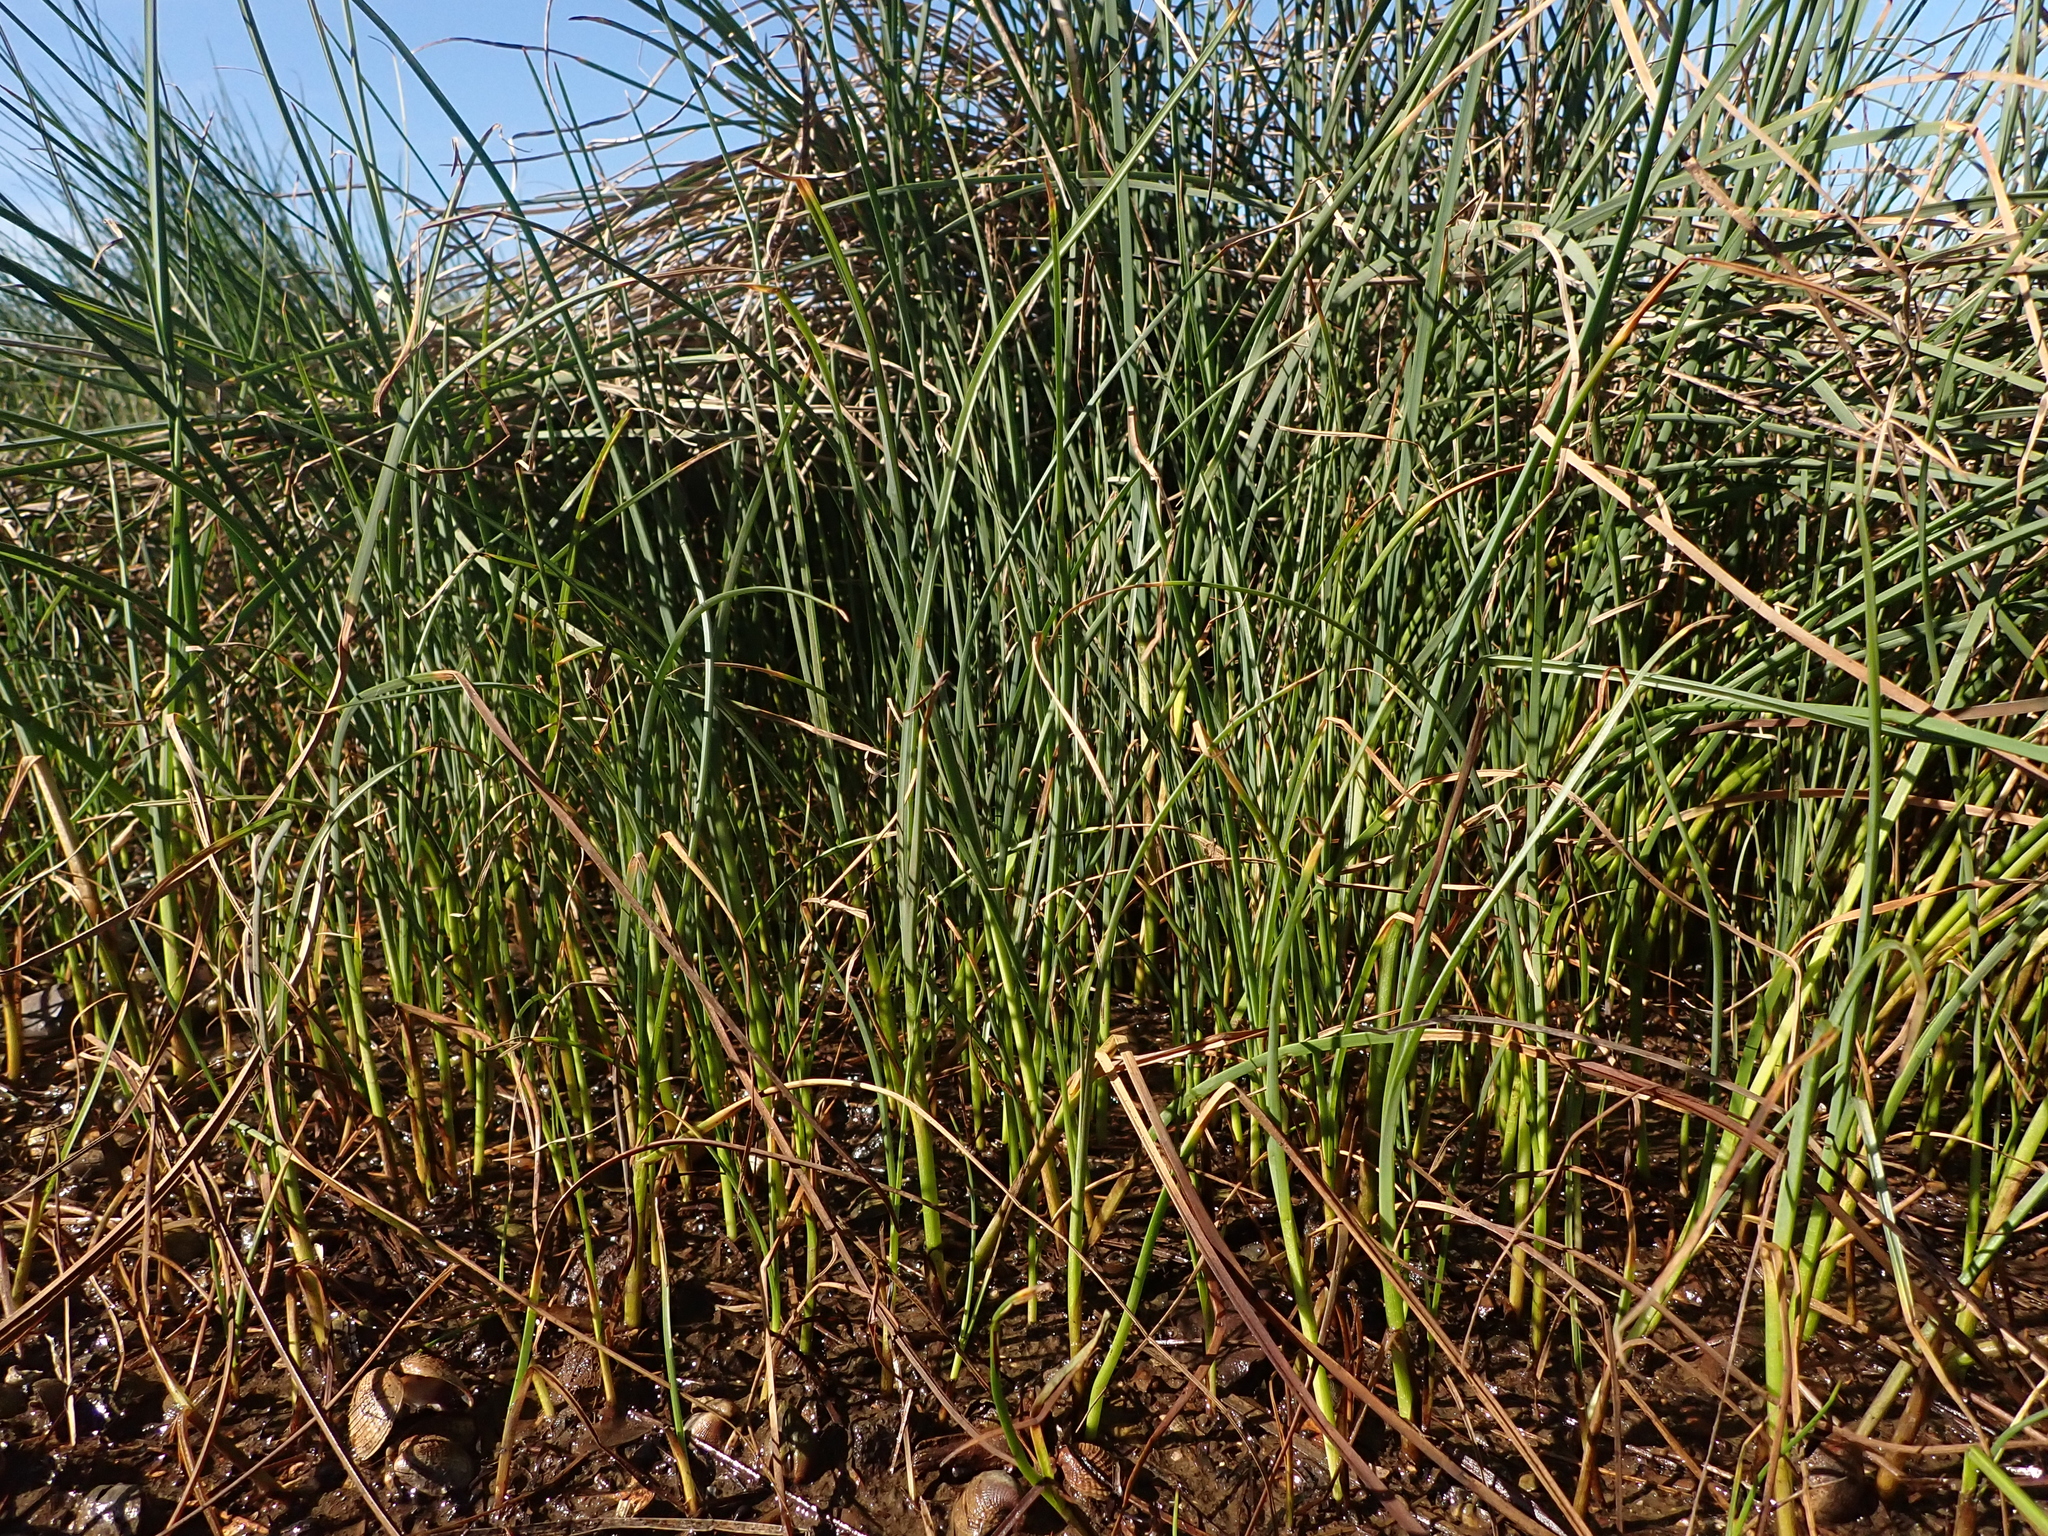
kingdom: Plantae
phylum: Tracheophyta
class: Liliopsida
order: Poales
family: Cyperaceae
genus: Schoenoplectus
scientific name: Schoenoplectus tabernaemontani
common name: Grey club-rush
